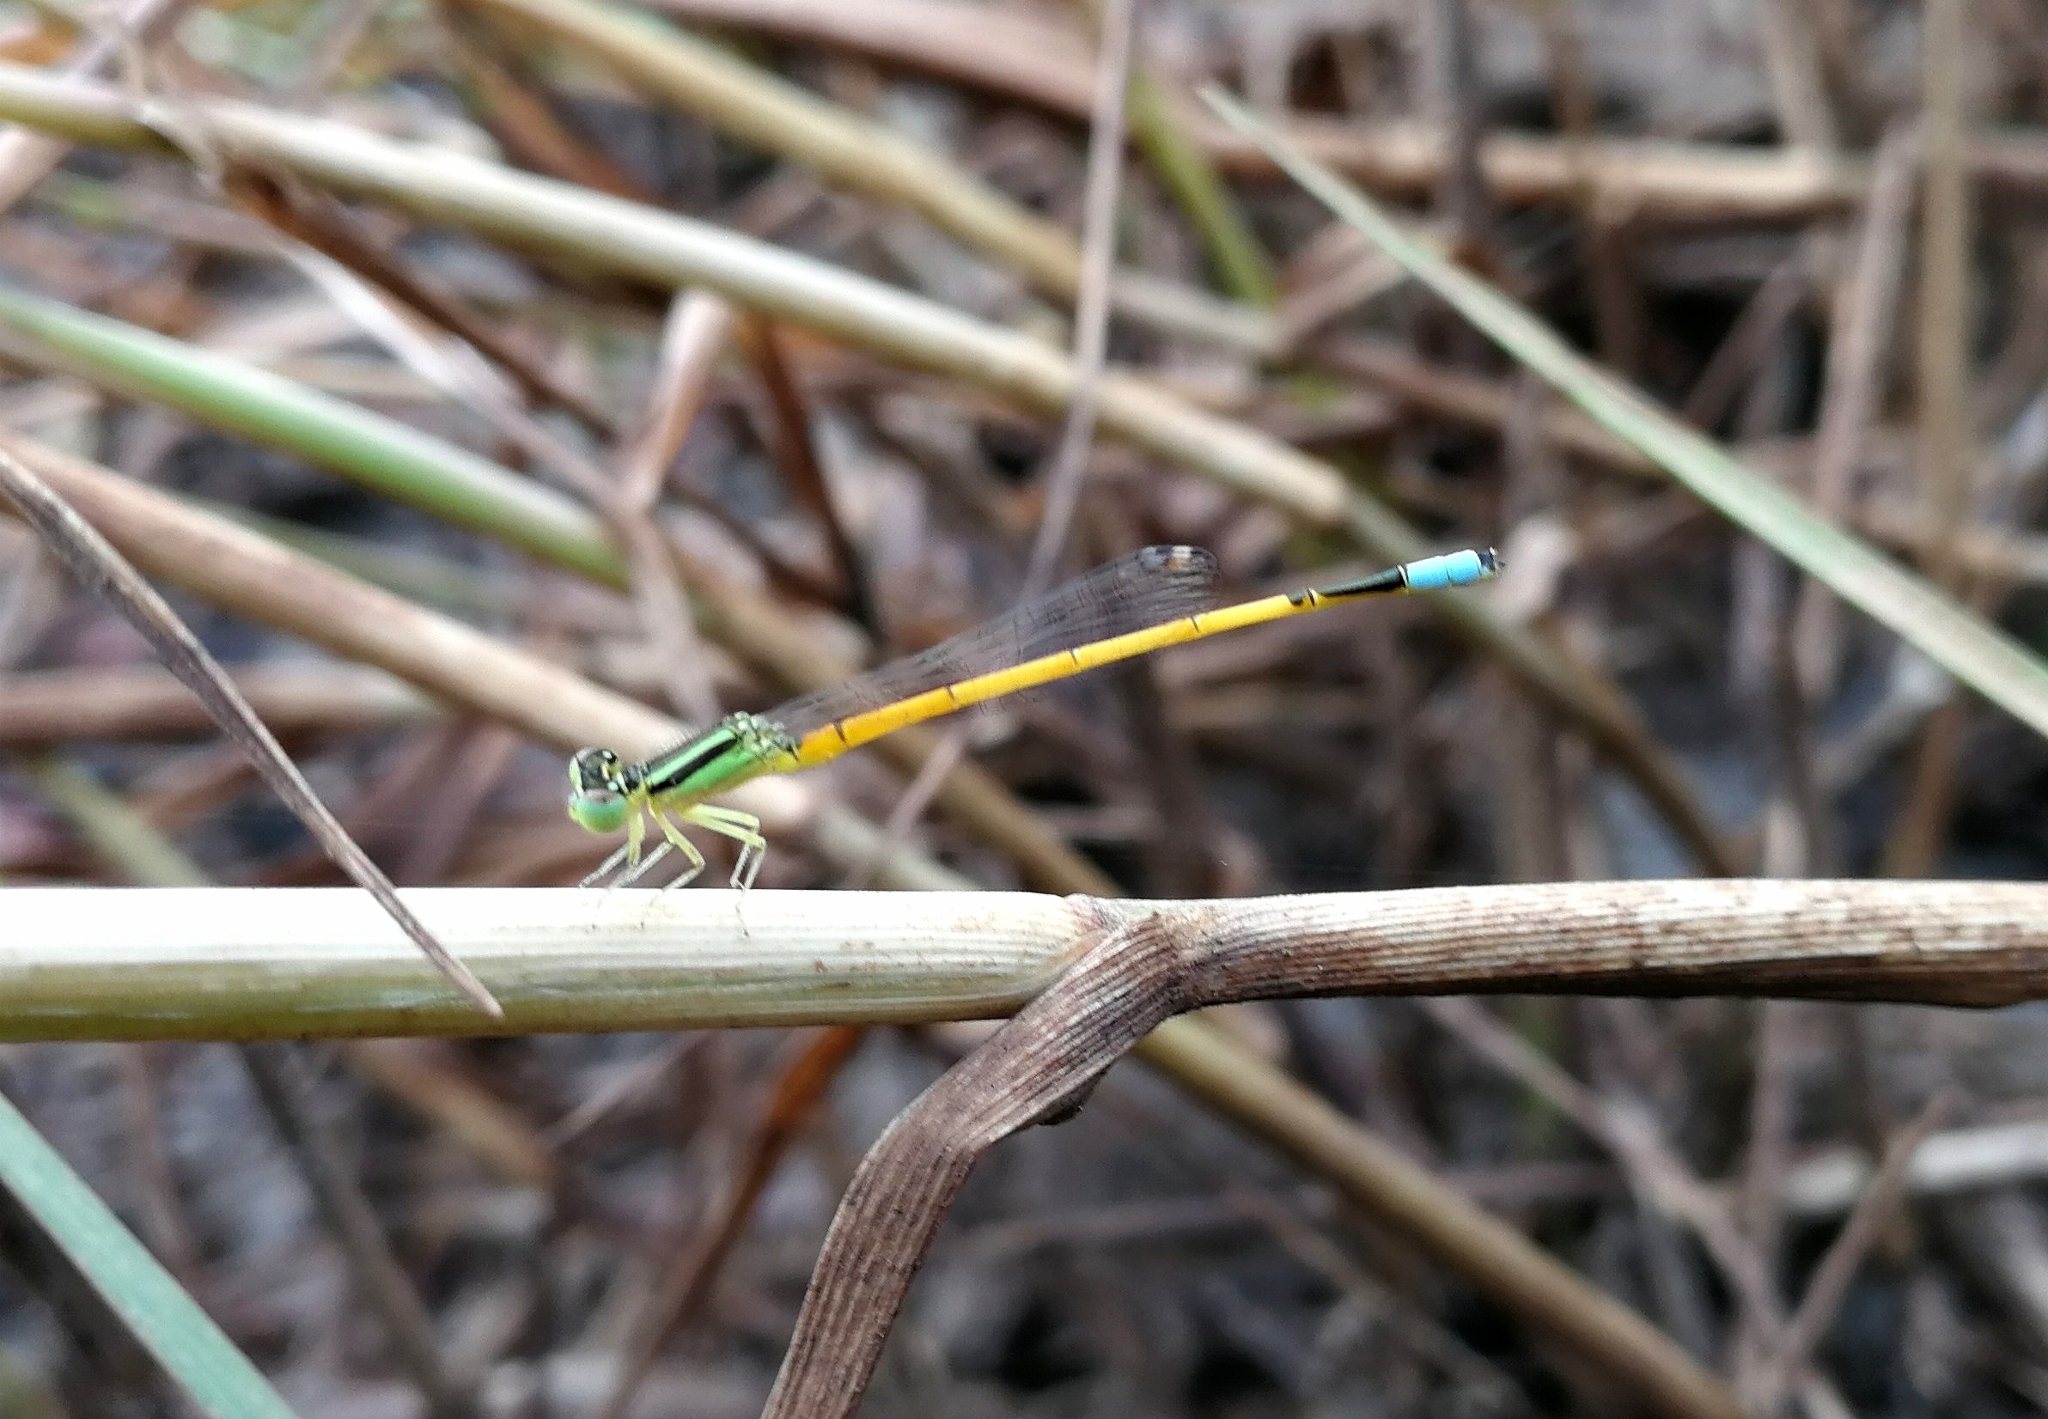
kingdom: Animalia
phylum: Arthropoda
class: Insecta
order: Odonata
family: Coenagrionidae
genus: Ischnura
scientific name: Ischnura rubilio
